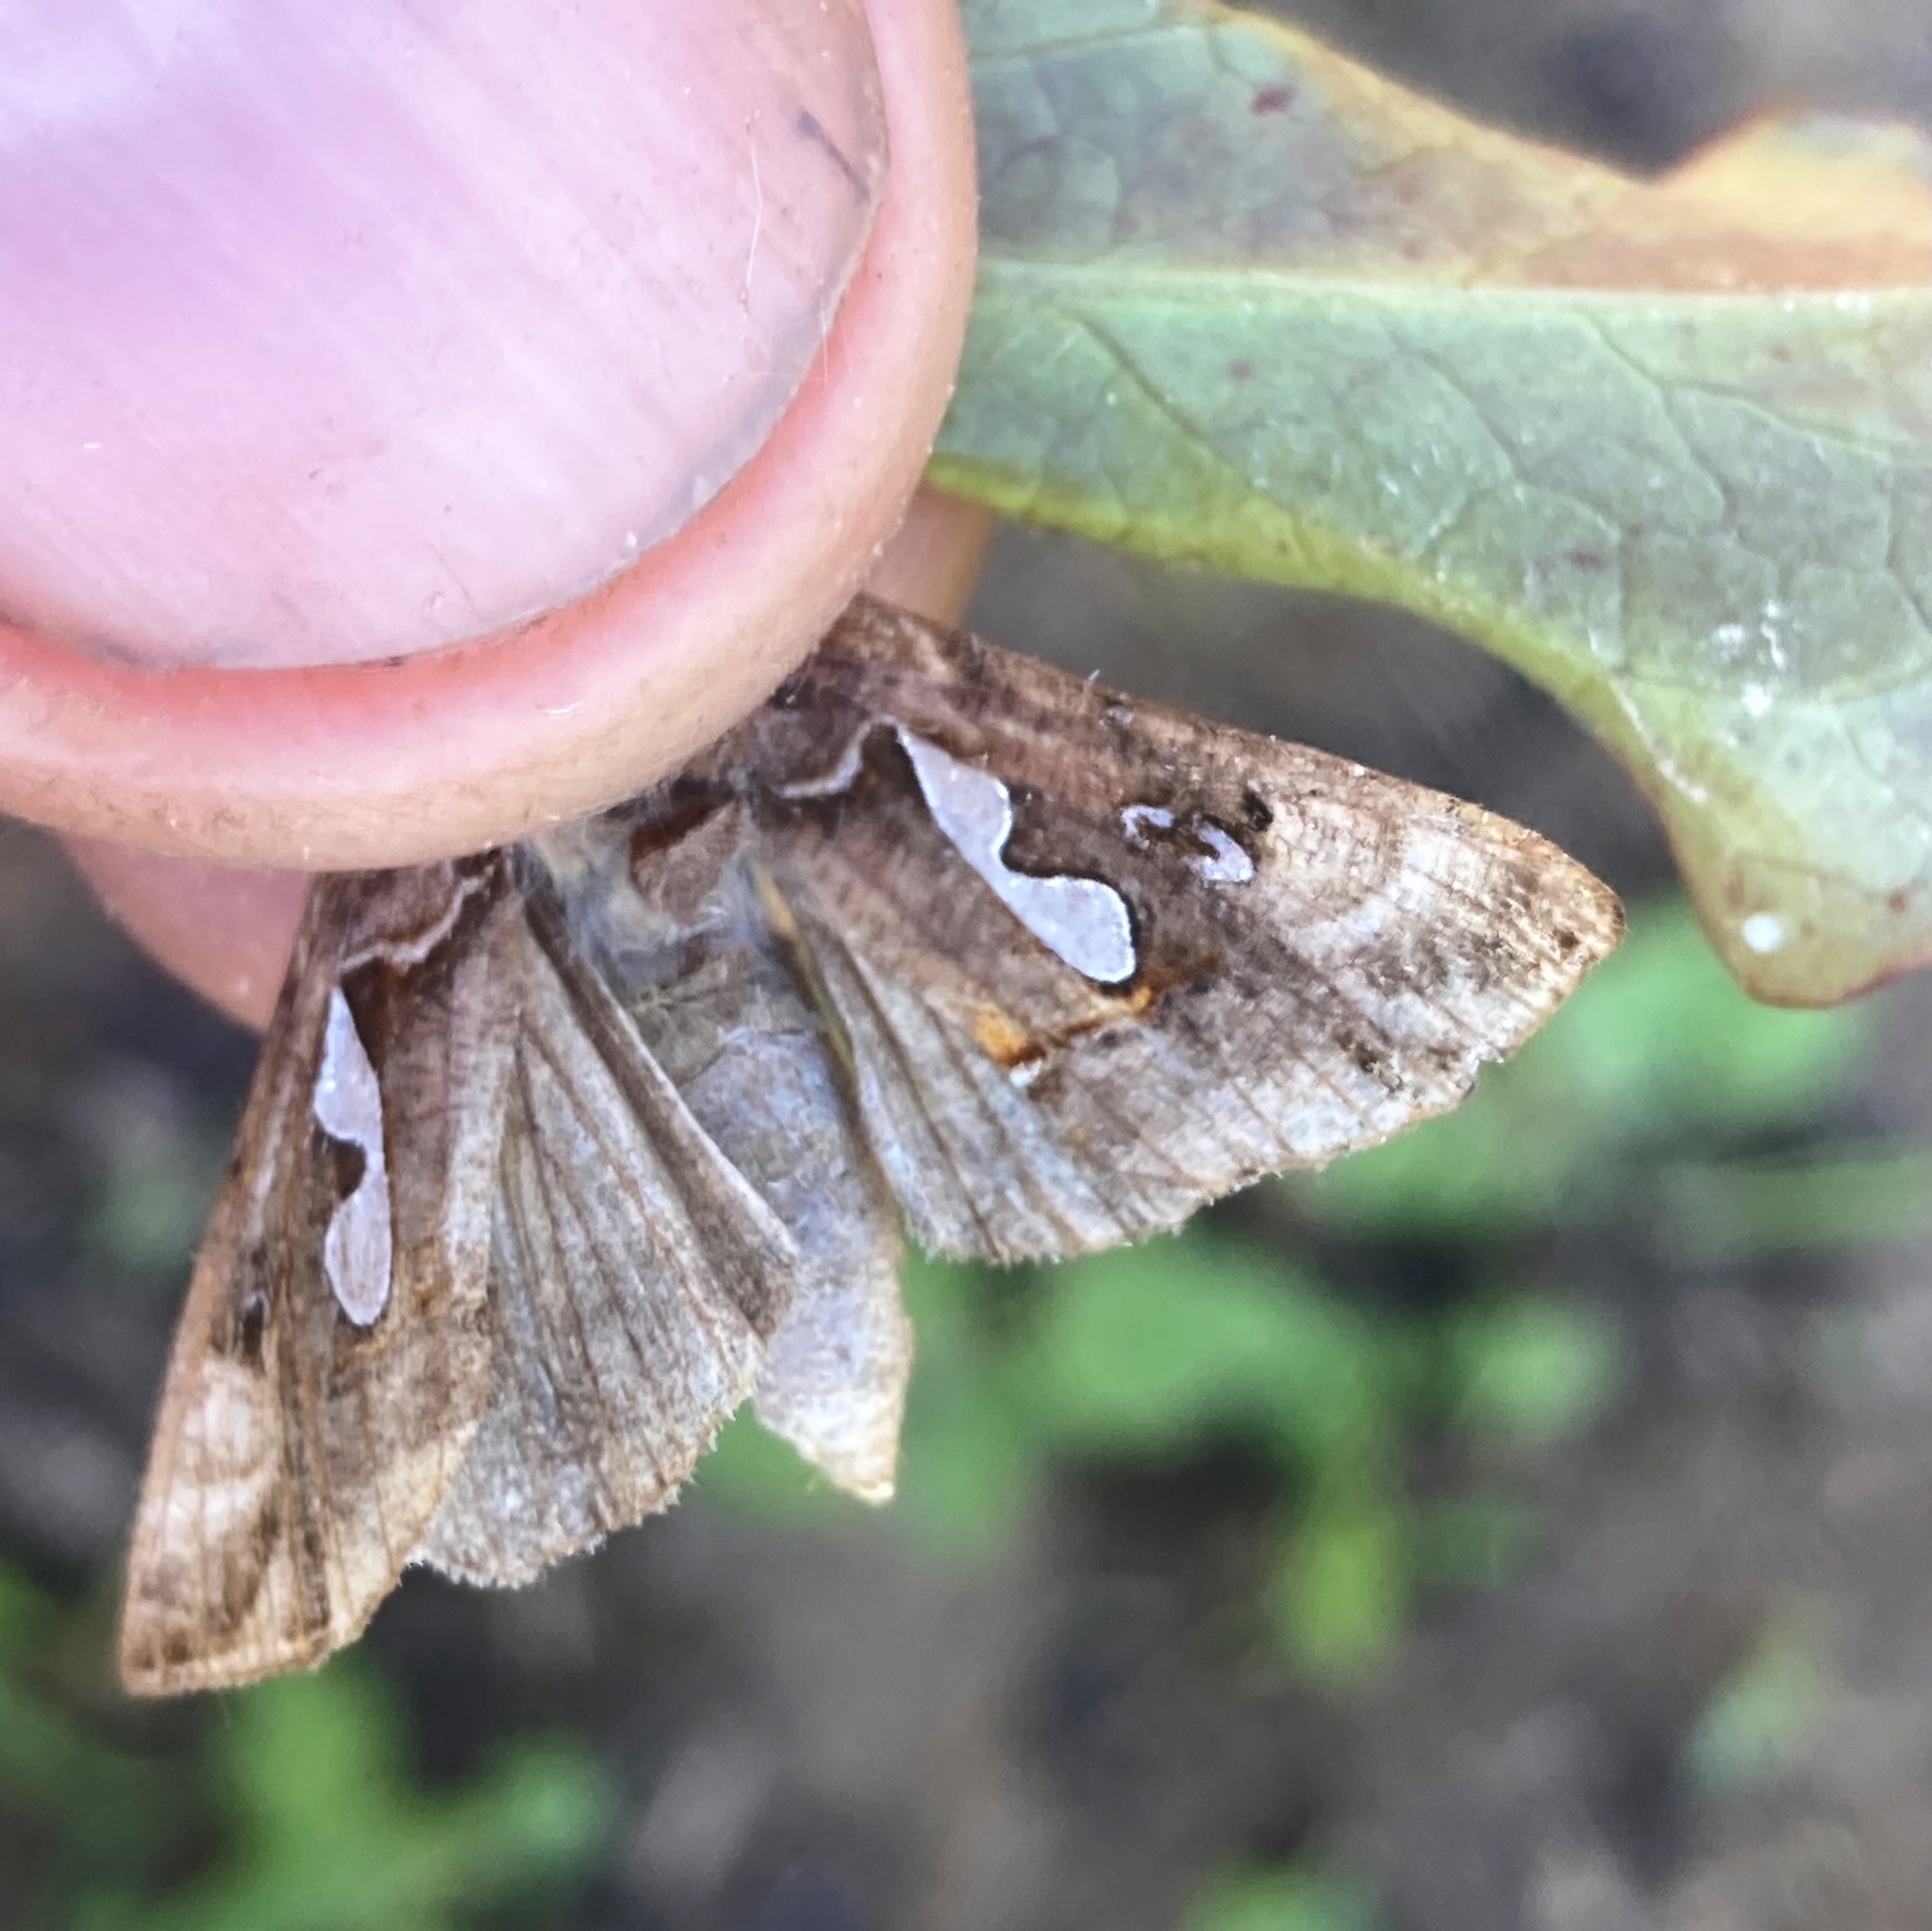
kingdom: Animalia
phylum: Arthropoda
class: Insecta
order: Lepidoptera
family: Noctuidae
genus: Megalographa
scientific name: Megalographa biloba
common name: Cutworm
